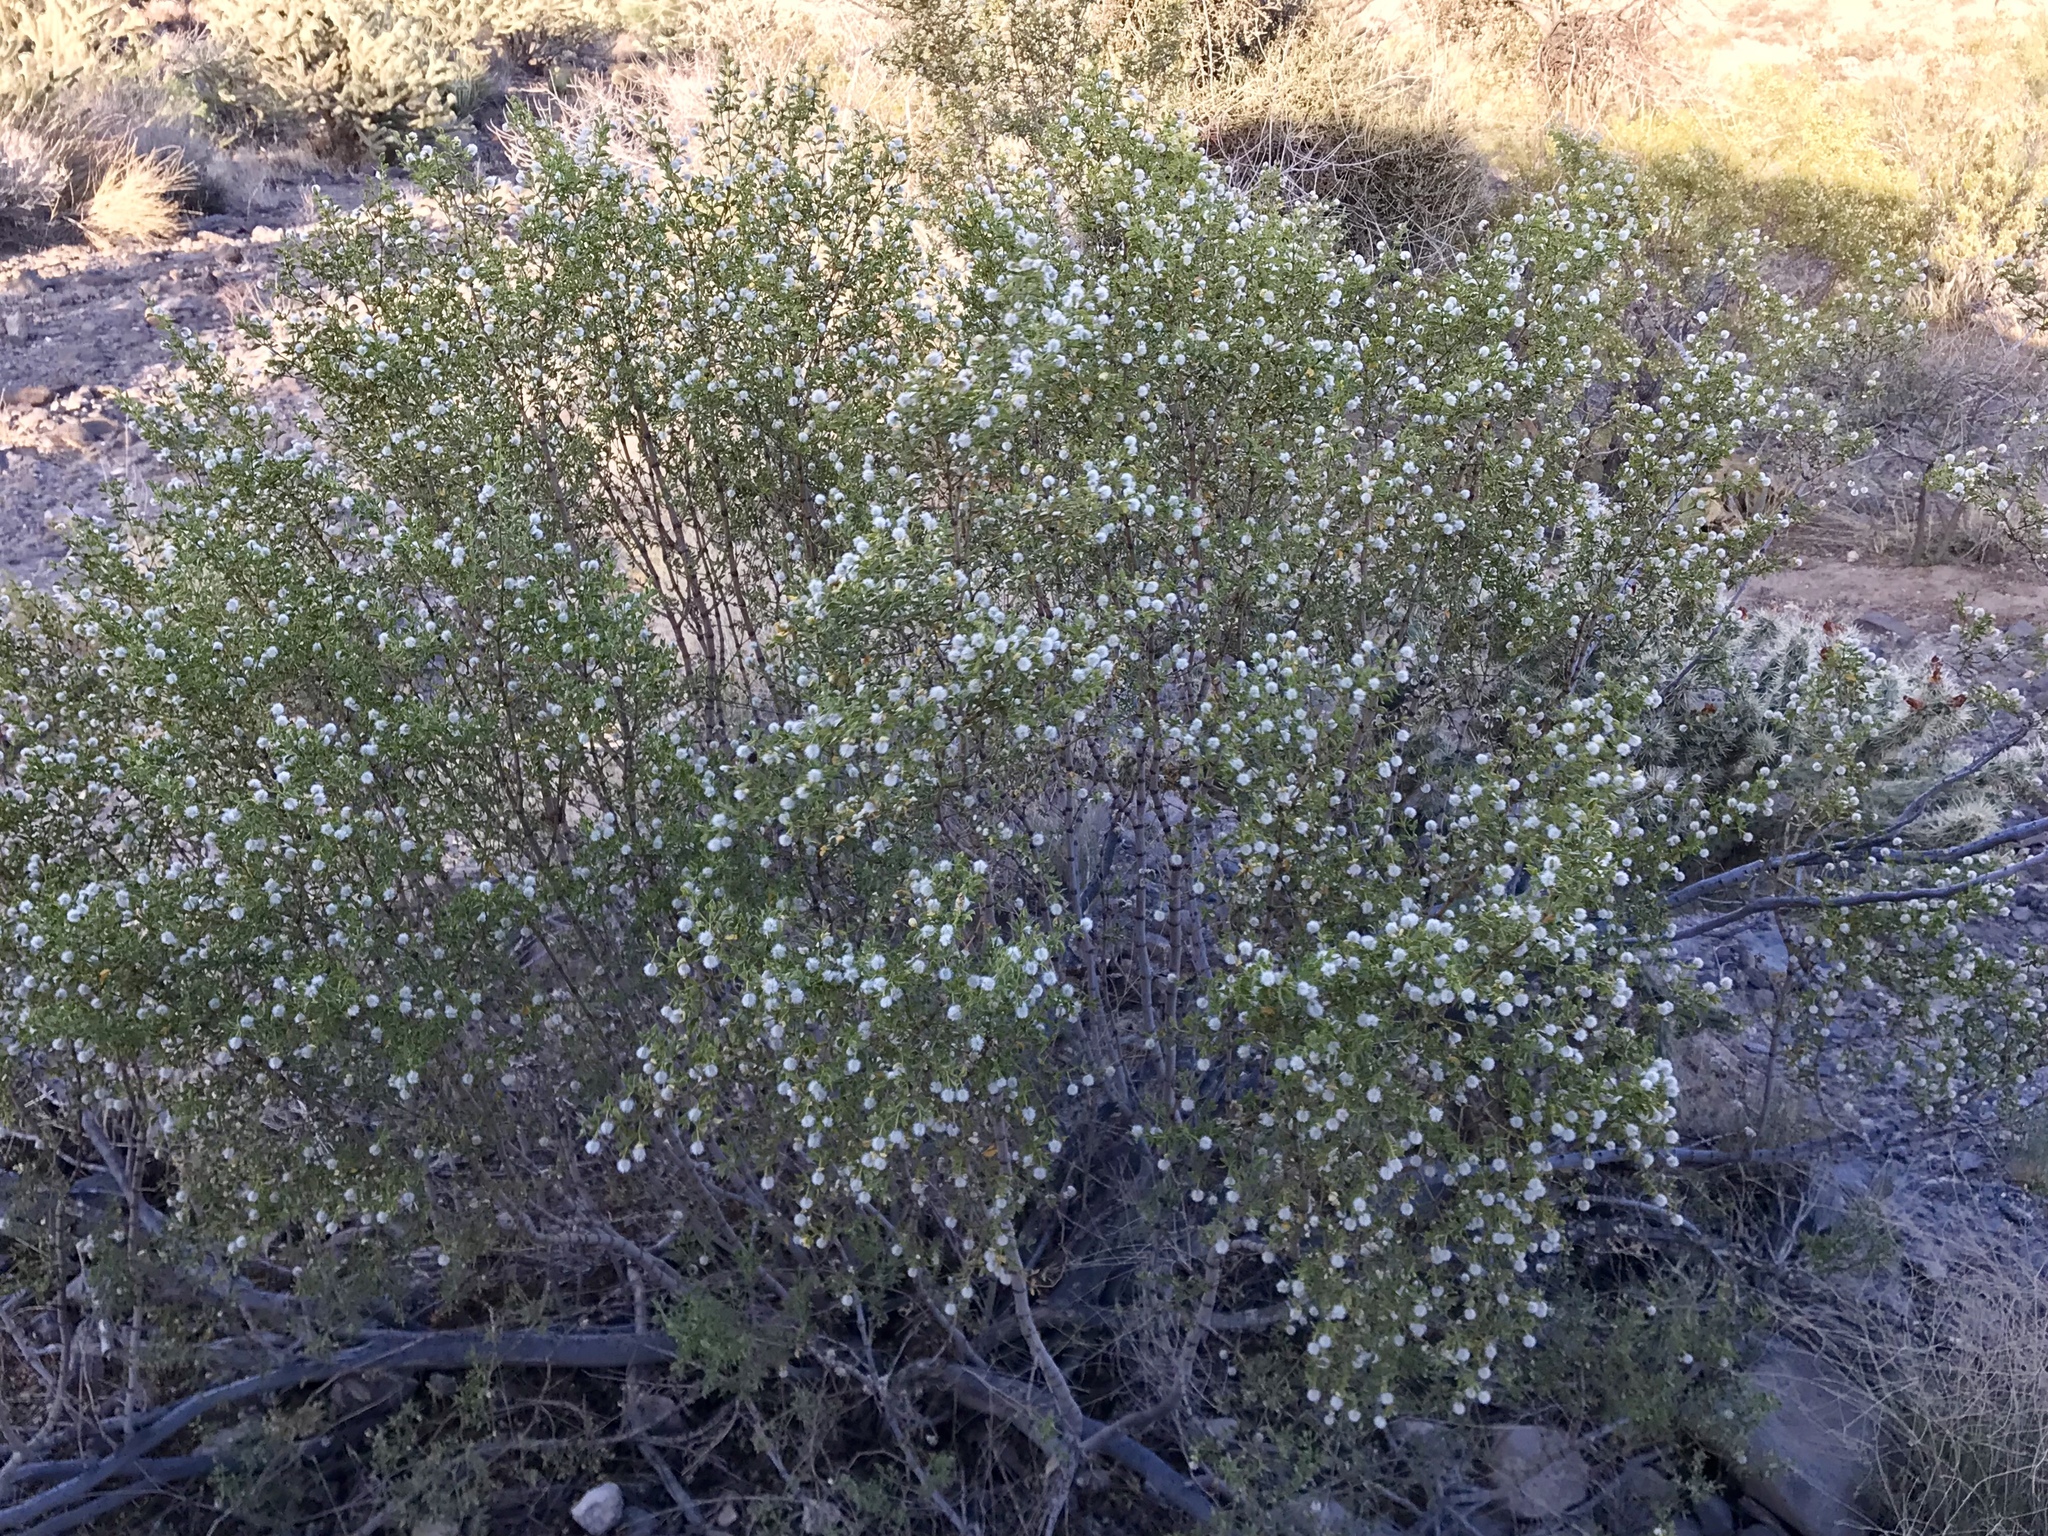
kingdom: Plantae
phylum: Tracheophyta
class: Magnoliopsida
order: Zygophyllales
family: Zygophyllaceae
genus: Larrea
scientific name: Larrea tridentata
